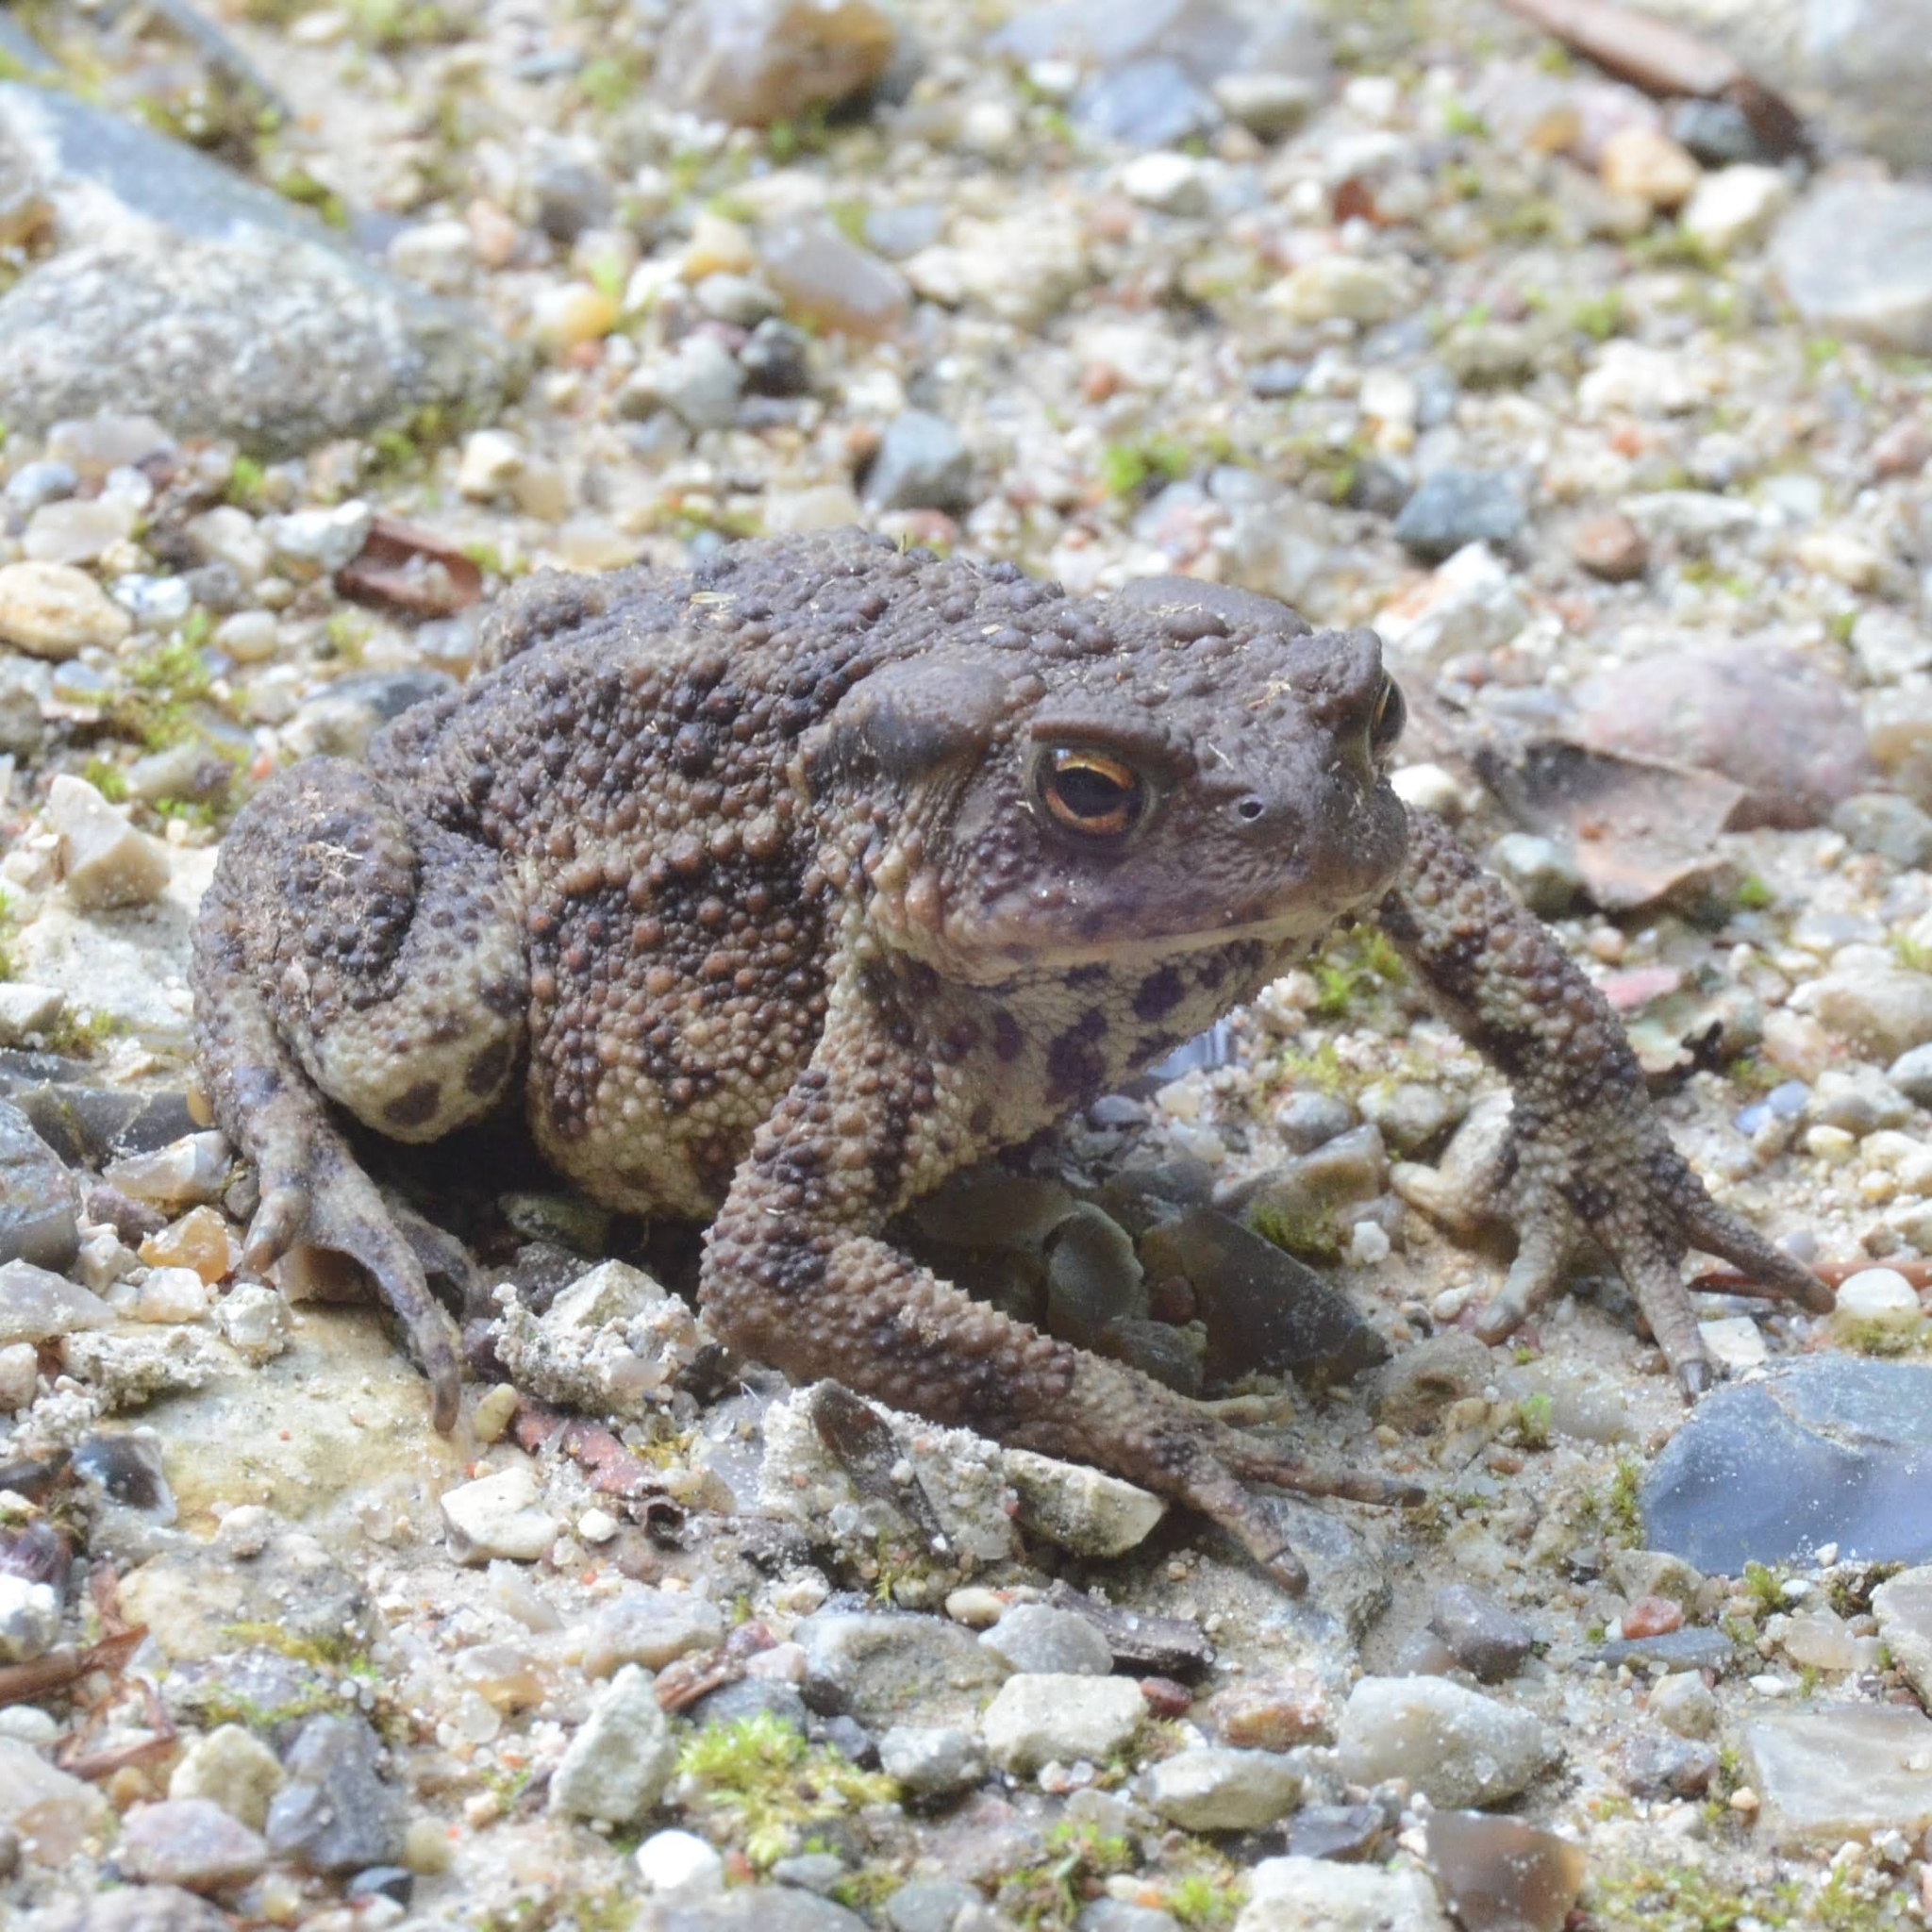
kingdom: Animalia
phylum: Chordata
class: Amphibia
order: Anura
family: Bufonidae
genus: Bufo
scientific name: Bufo bufo
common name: Common toad
